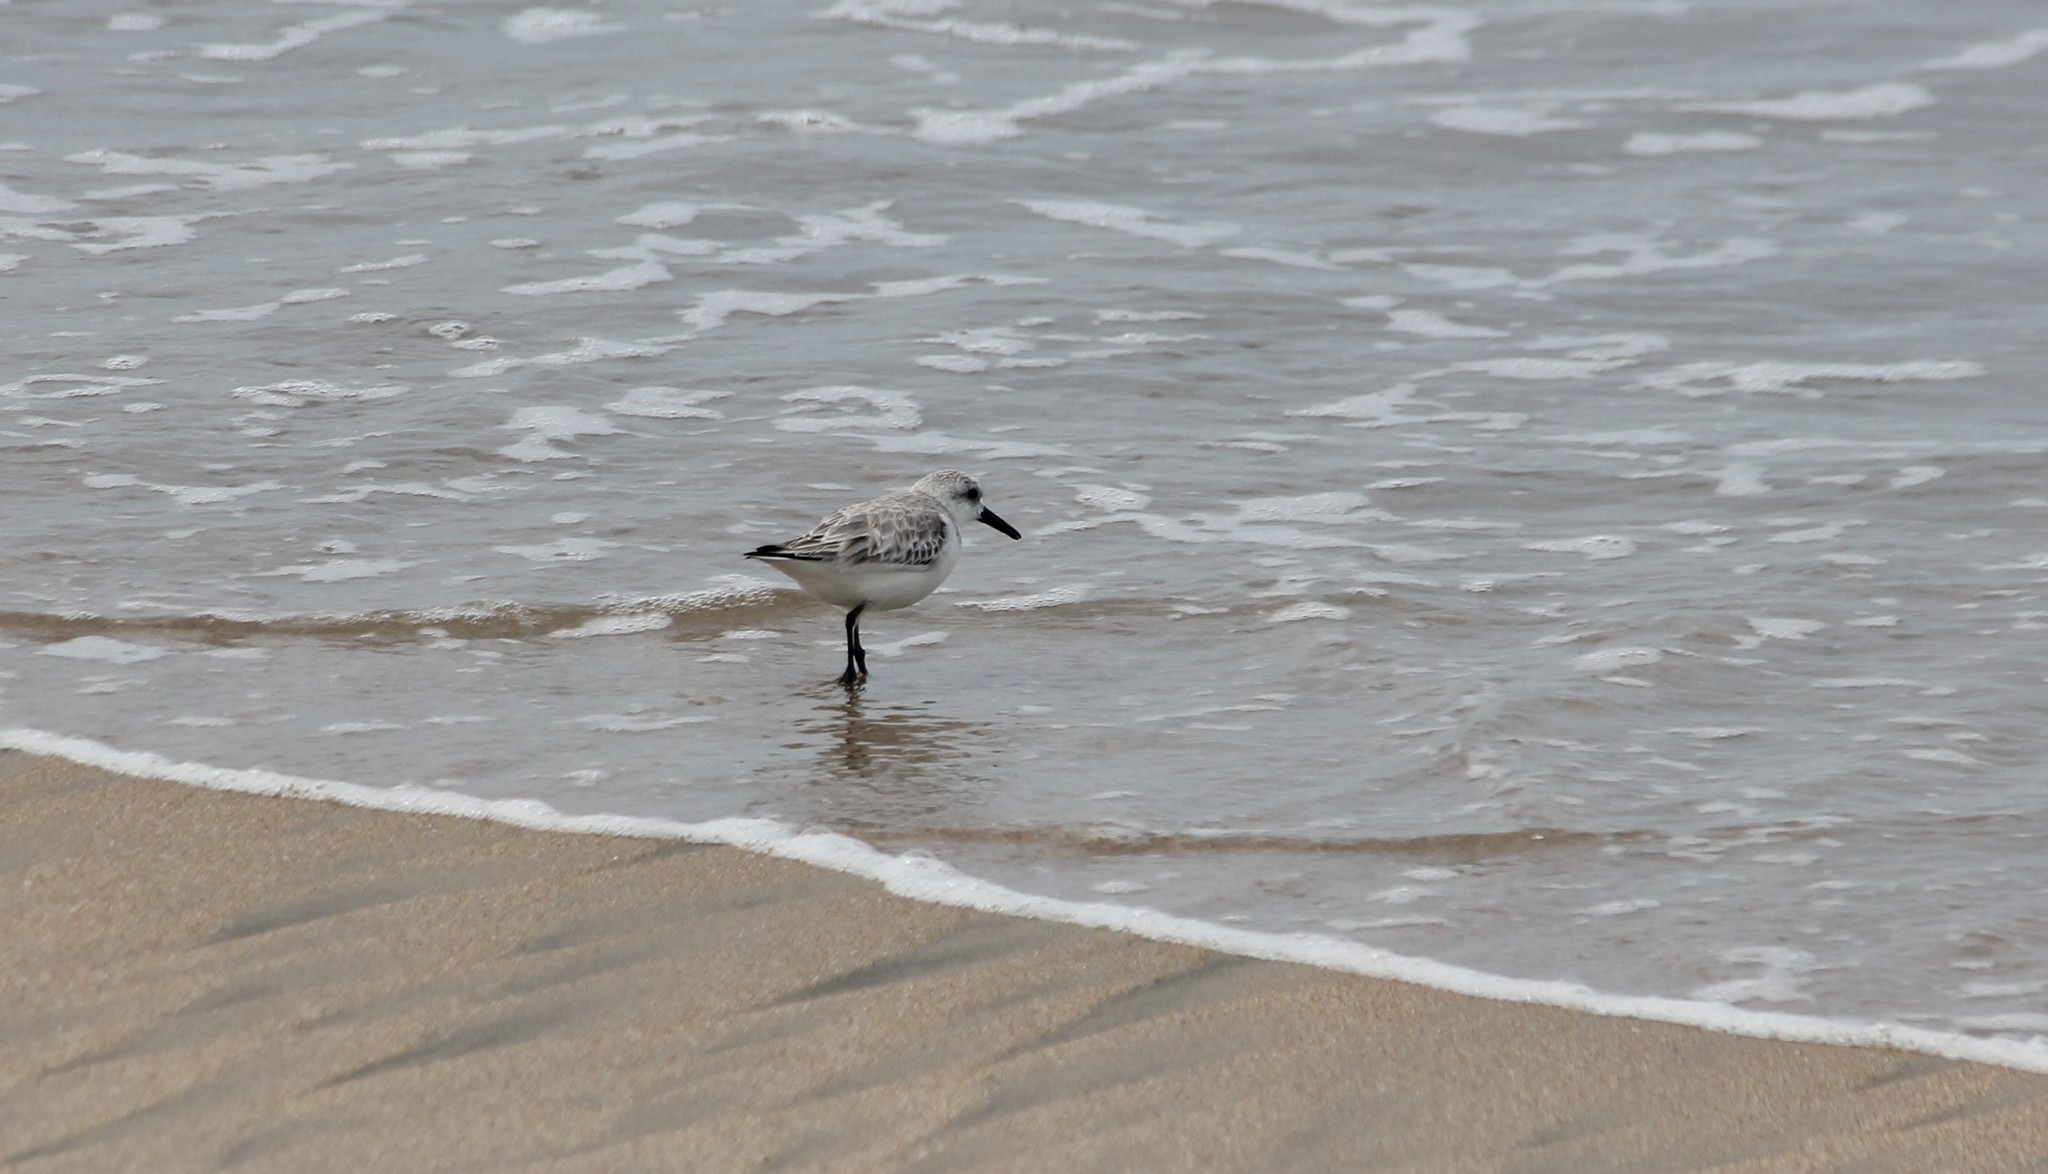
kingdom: Animalia
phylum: Chordata
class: Aves
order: Charadriiformes
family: Scolopacidae
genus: Calidris
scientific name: Calidris alba
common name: Sanderling
